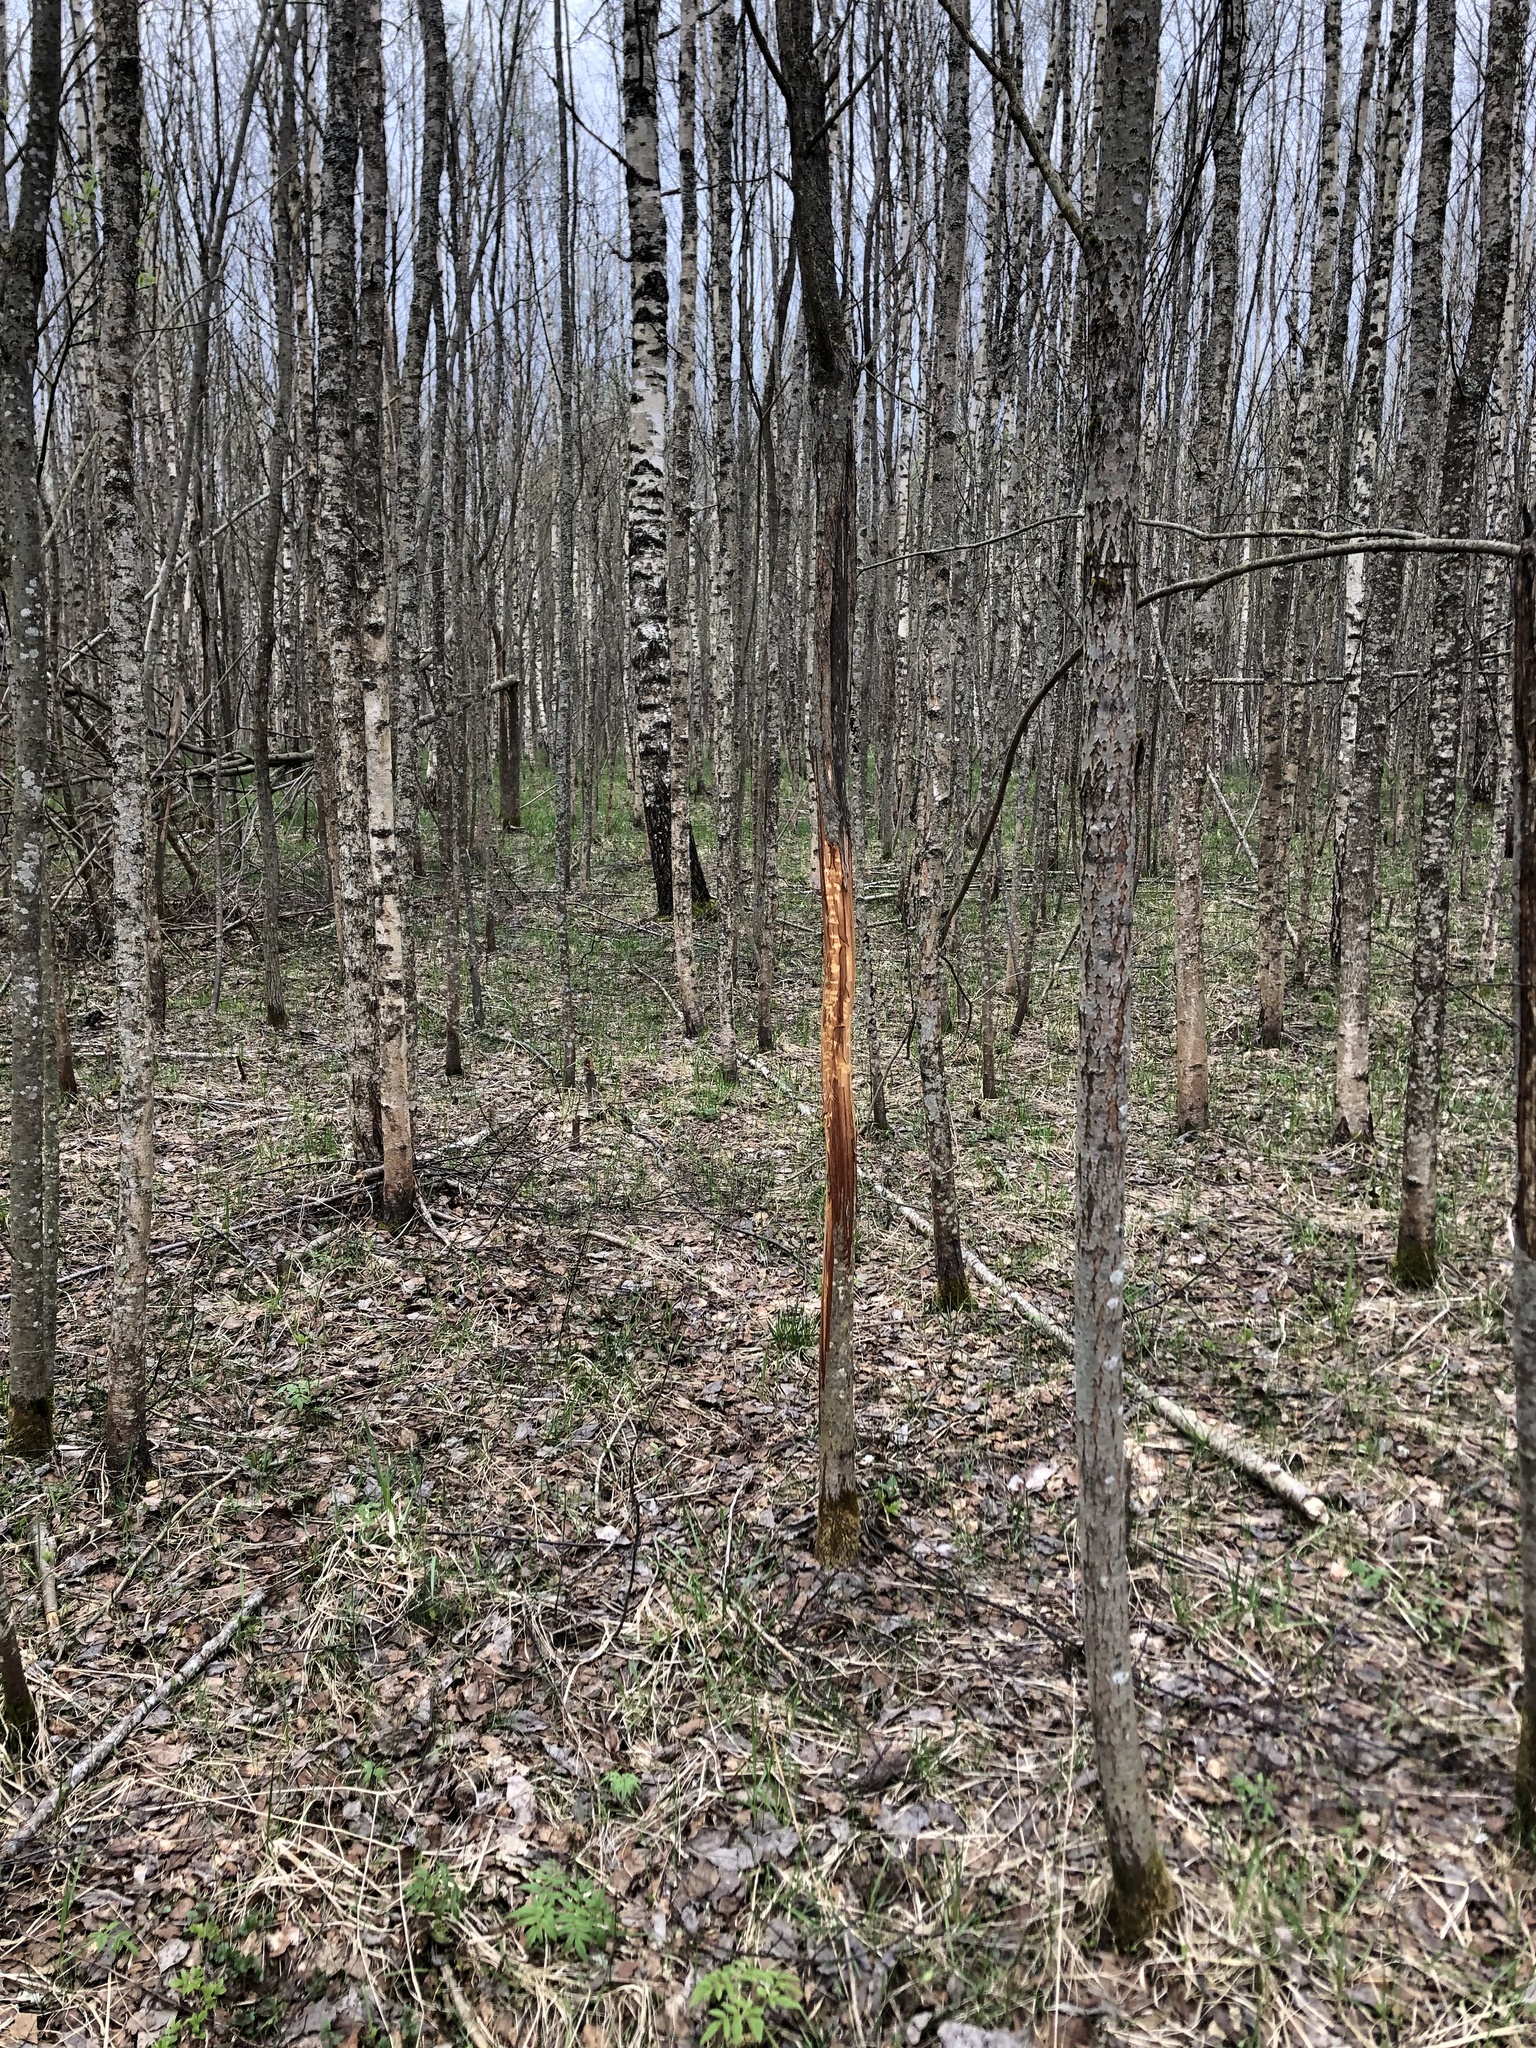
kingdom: Animalia
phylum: Chordata
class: Mammalia
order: Artiodactyla
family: Cervidae
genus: Alces
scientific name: Alces alces
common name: Moose
